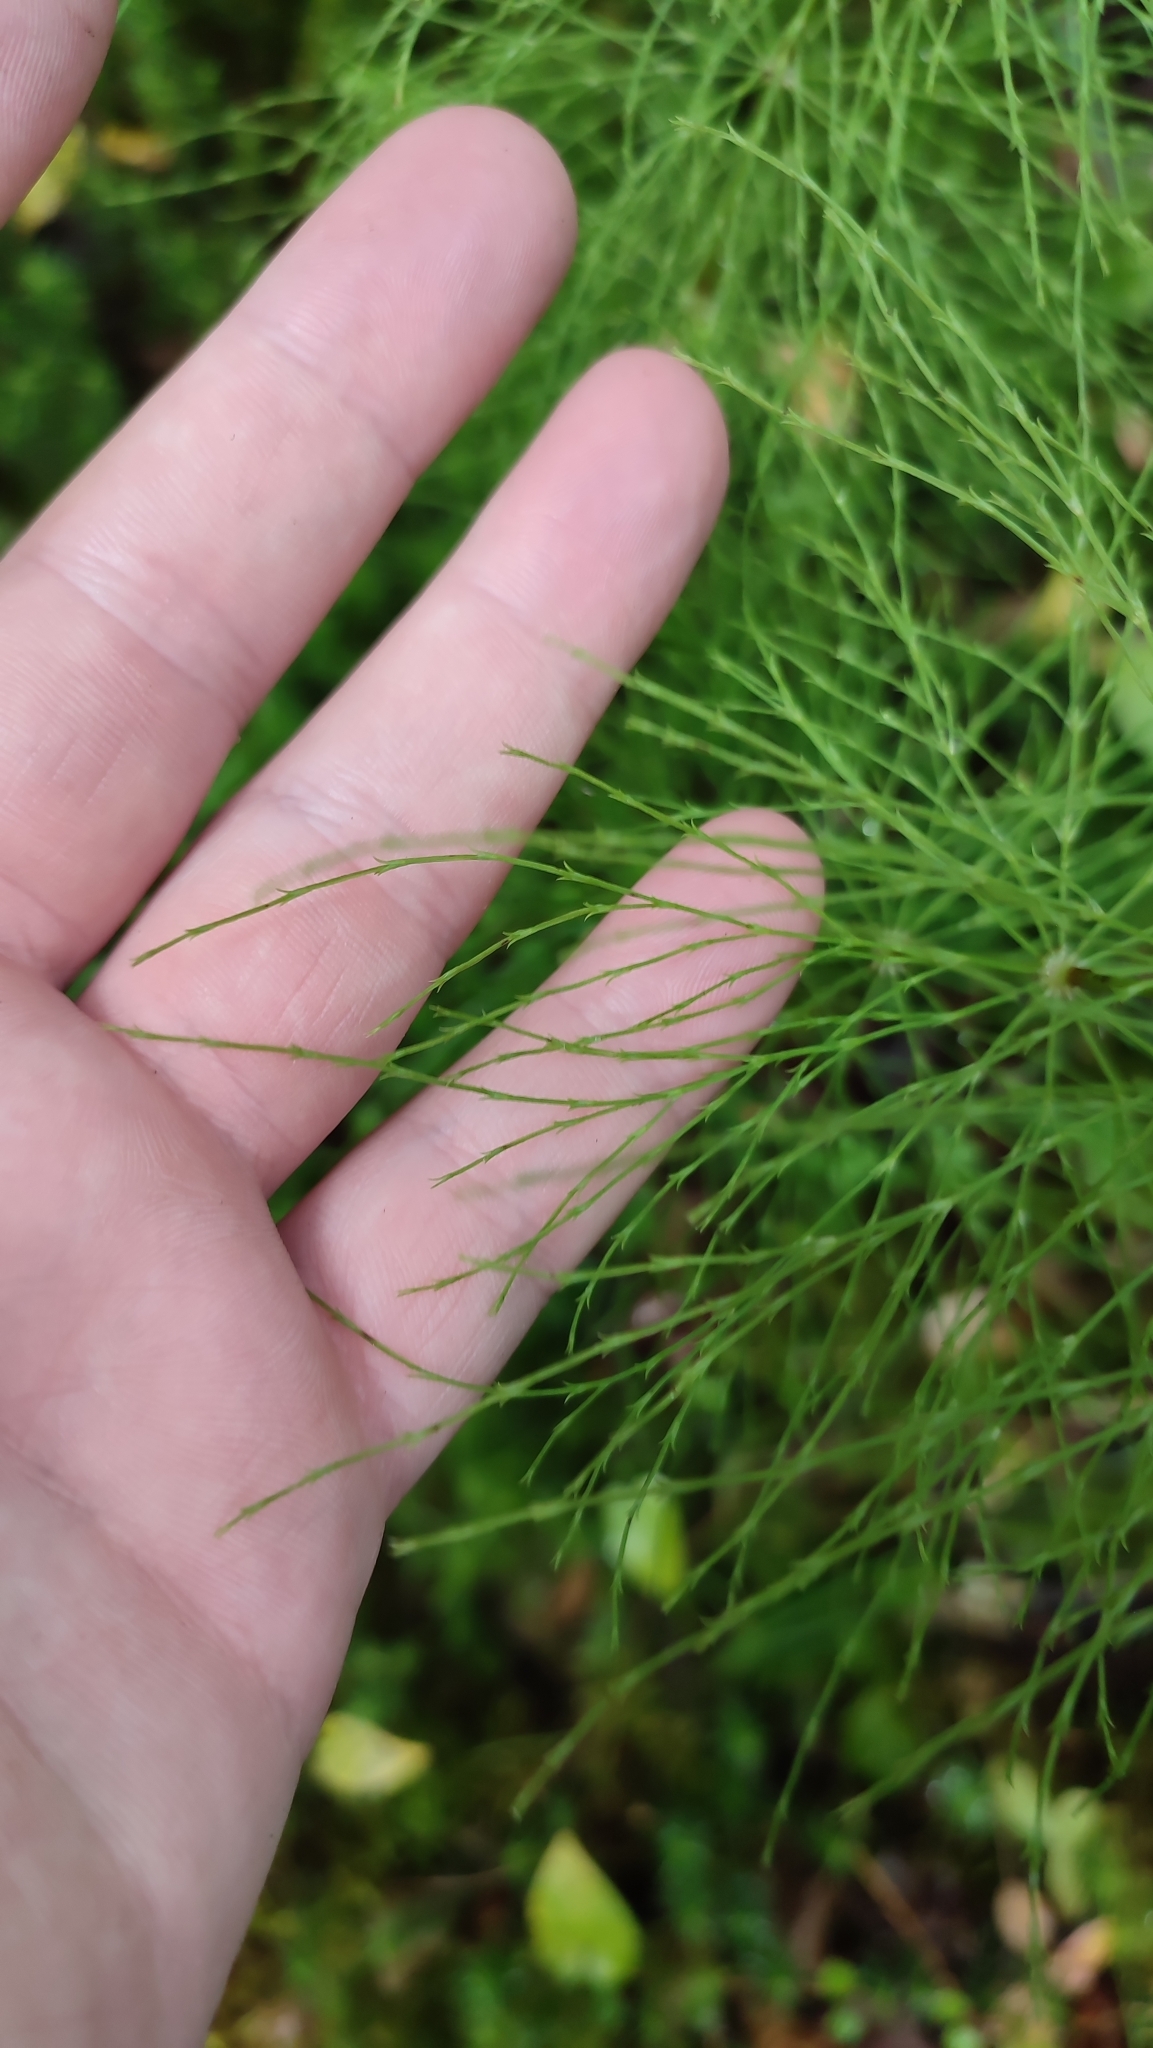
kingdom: Plantae
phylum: Tracheophyta
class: Polypodiopsida
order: Equisetales
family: Equisetaceae
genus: Equisetum
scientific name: Equisetum sylvaticum
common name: Wood horsetail
